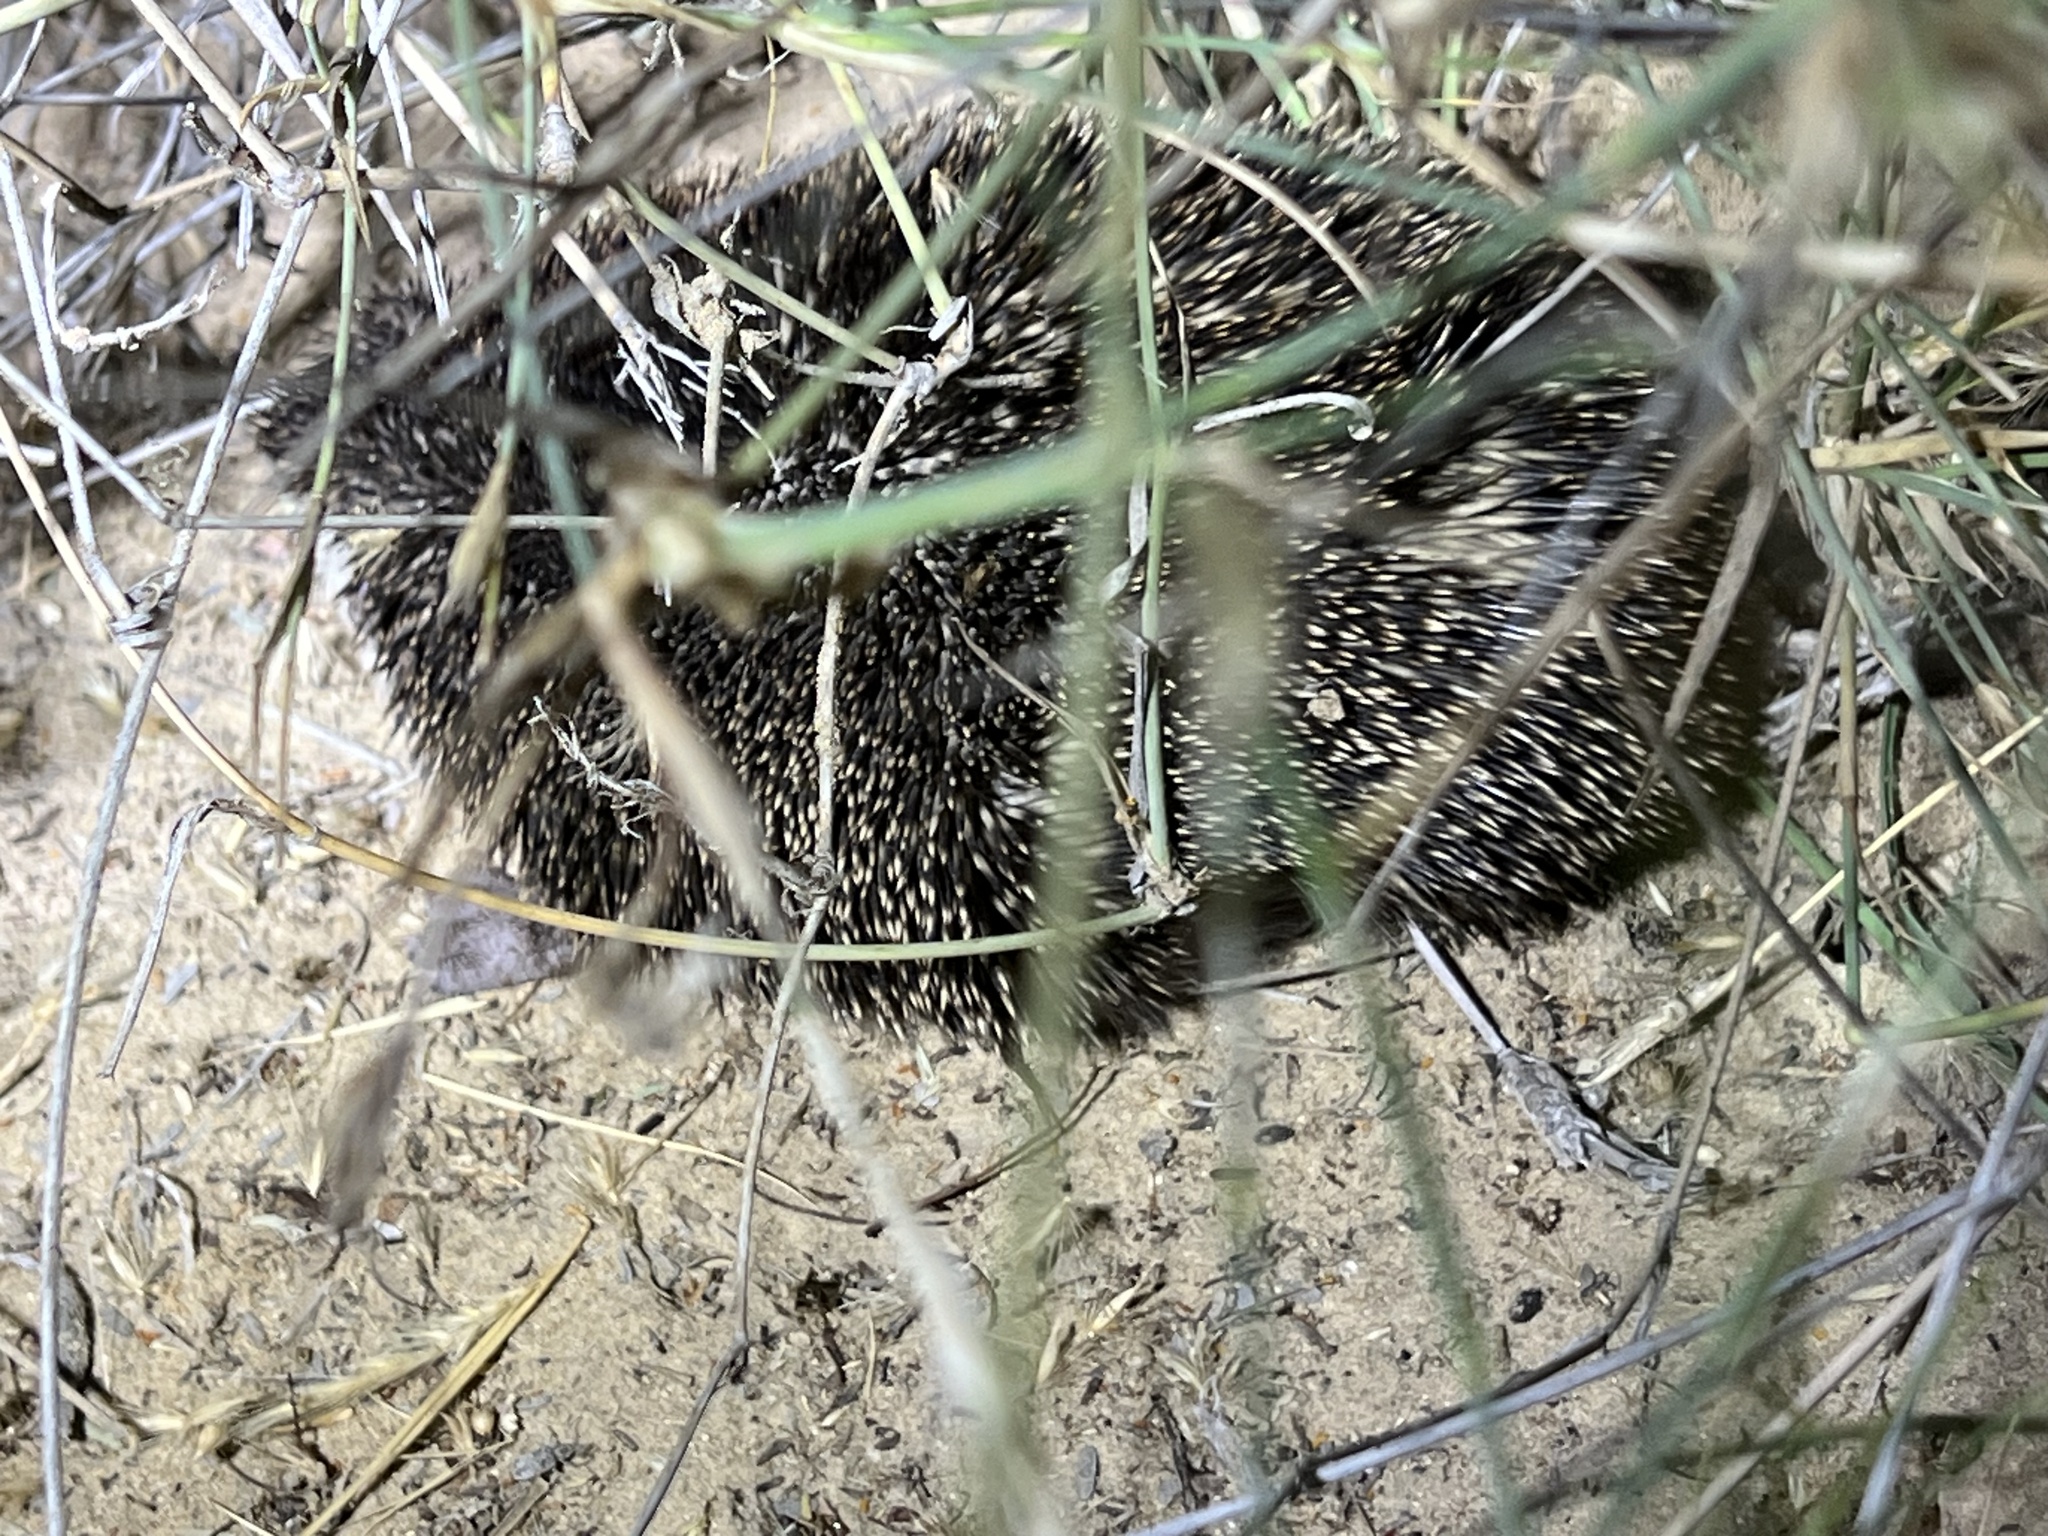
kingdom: Animalia
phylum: Chordata
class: Mammalia
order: Erinaceomorpha
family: Erinaceidae
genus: Paraechinus
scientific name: Paraechinus aethiopicus
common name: Desert hedgehog
